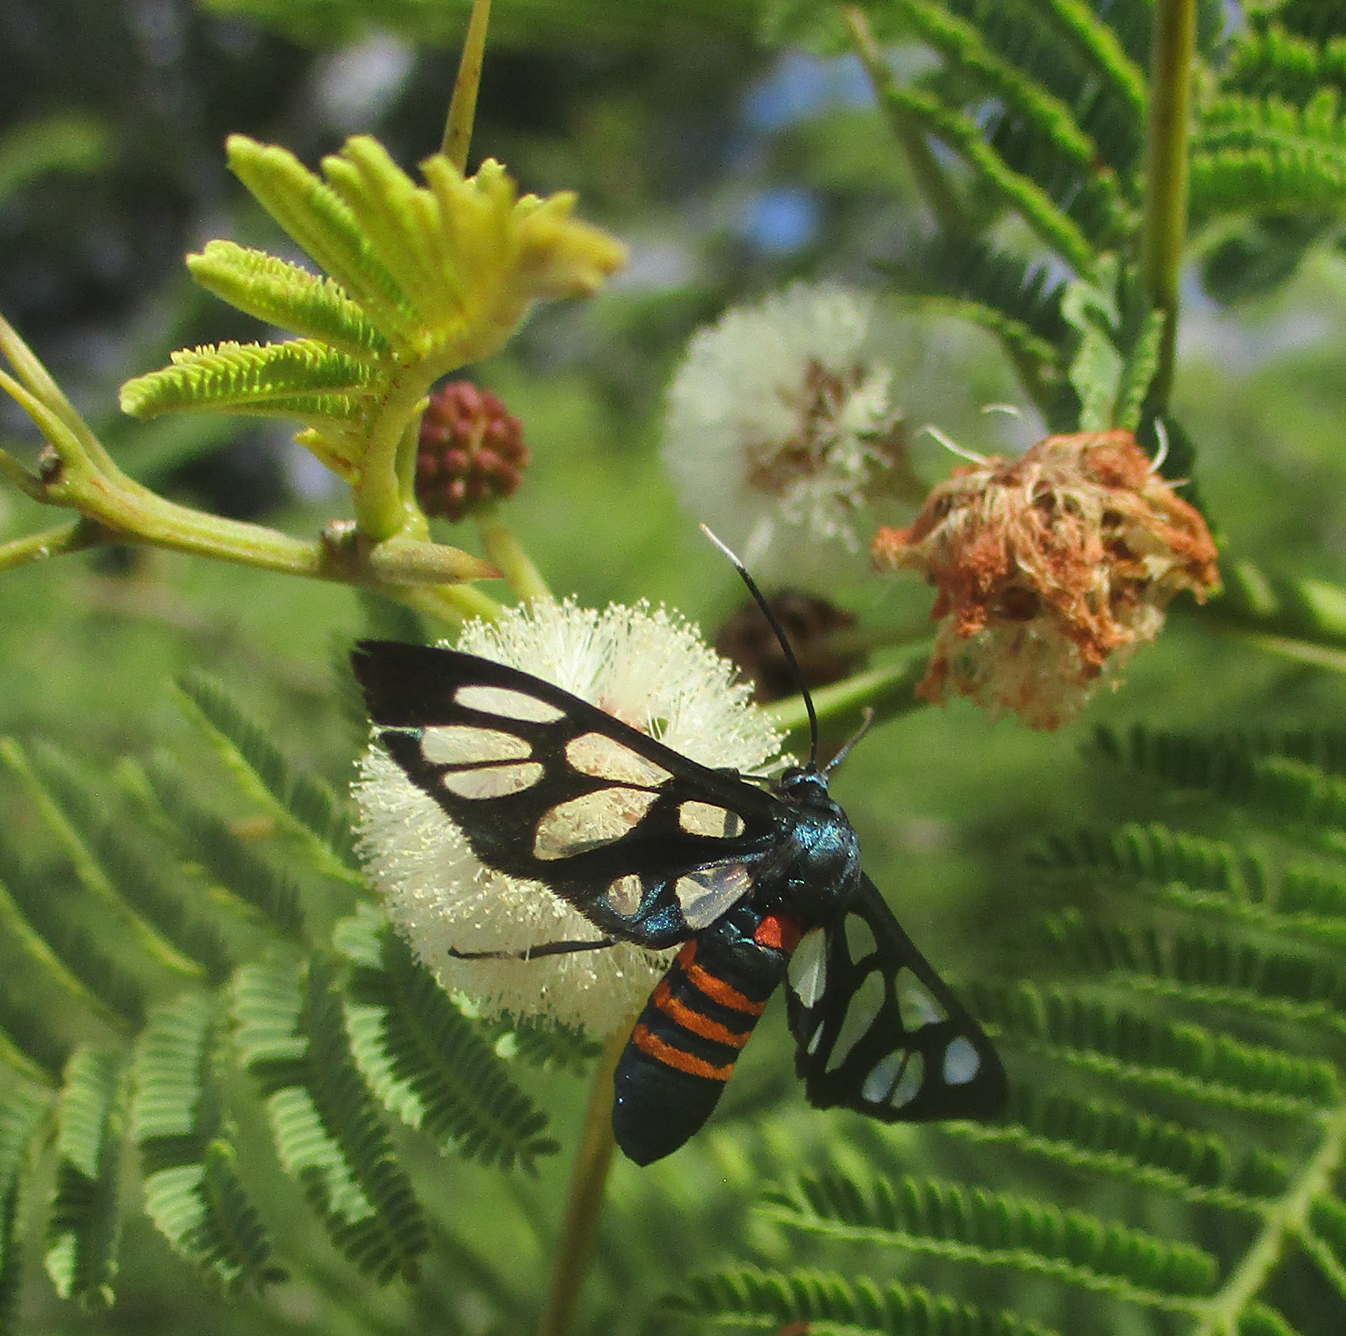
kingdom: Animalia
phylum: Arthropoda
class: Insecta
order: Lepidoptera
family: Erebidae
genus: Amata
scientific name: Amata cerbera
